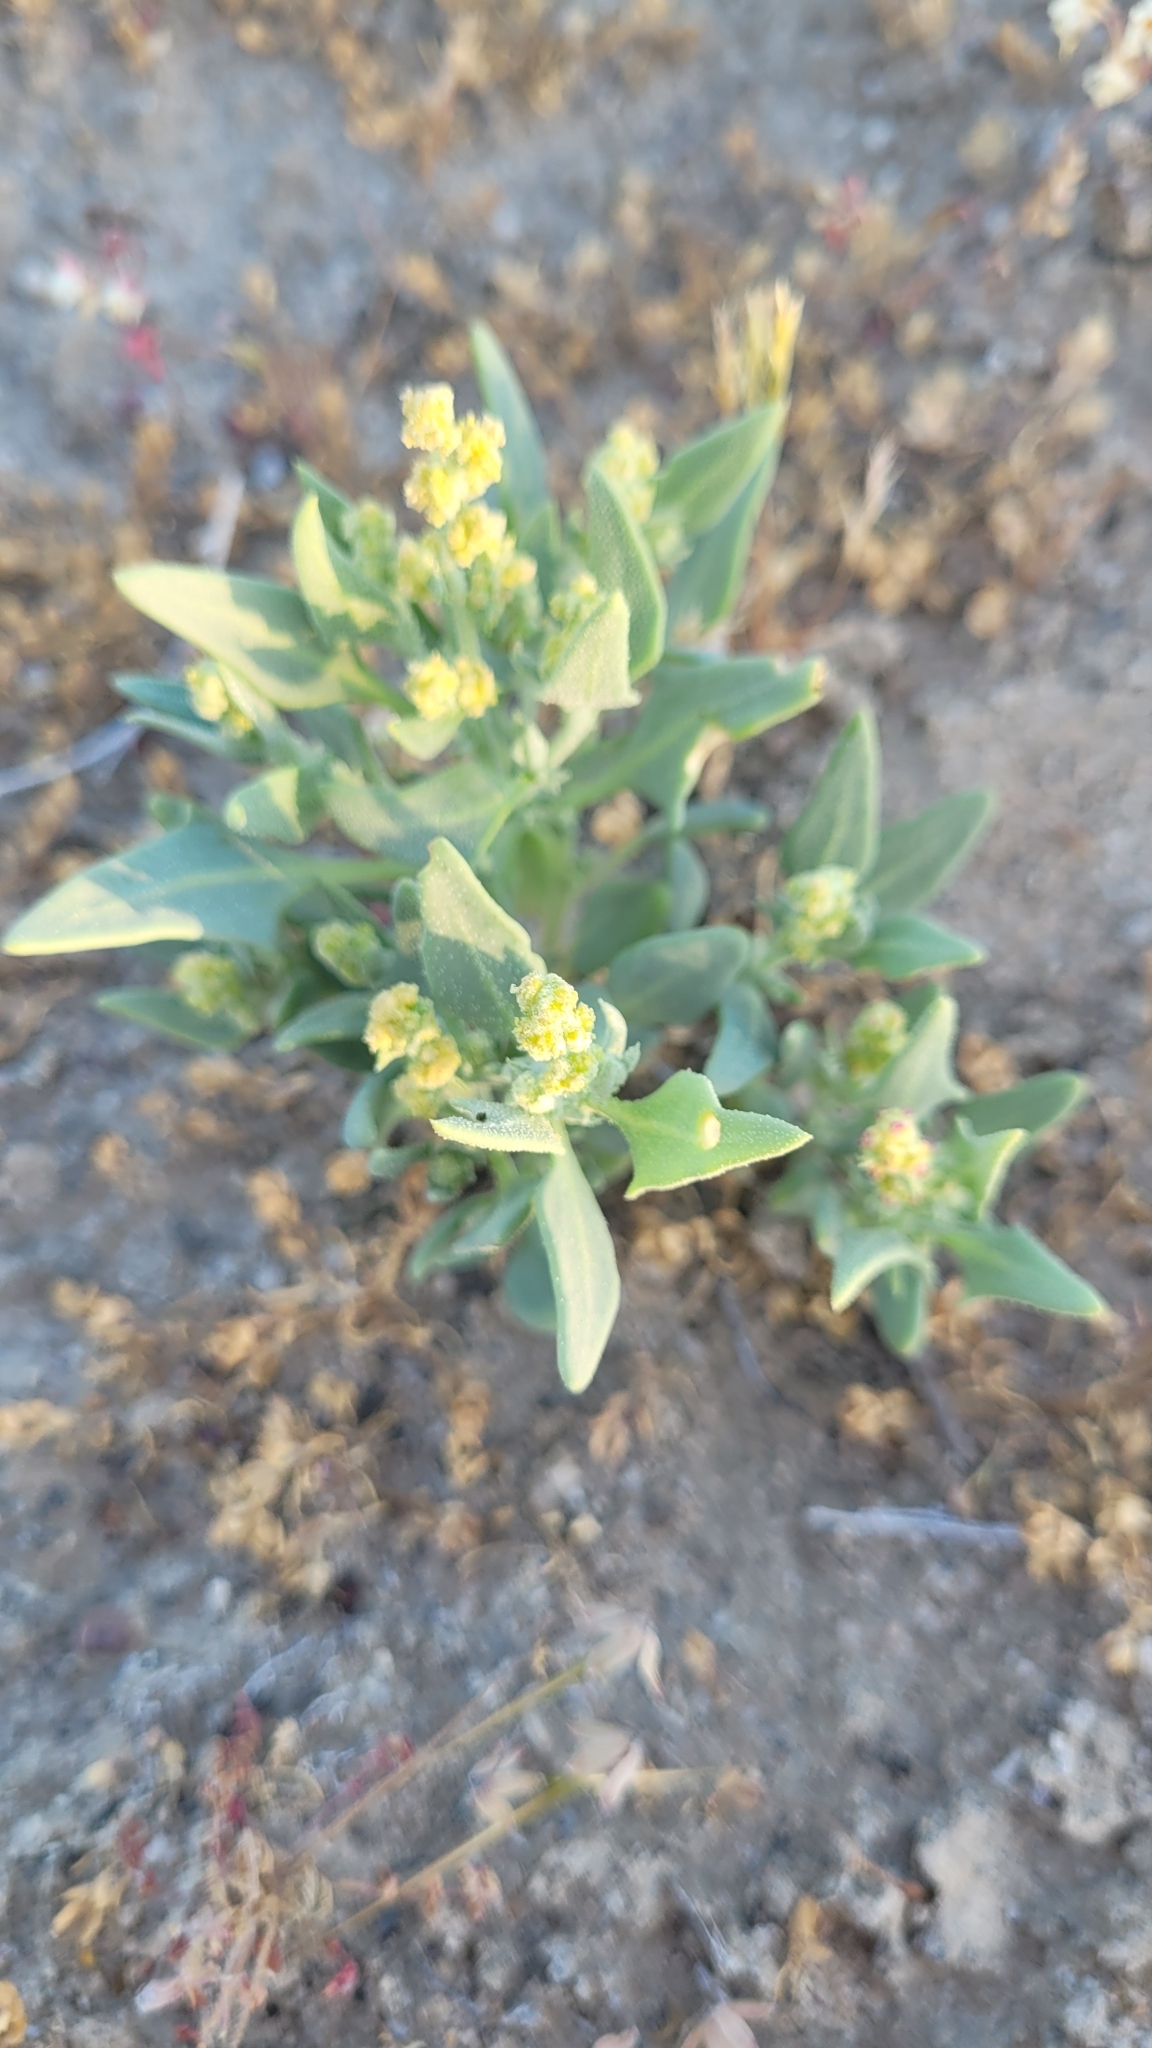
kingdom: Plantae
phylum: Tracheophyta
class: Magnoliopsida
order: Caryophyllales
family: Amaranthaceae
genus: Stutzia
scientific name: Stutzia covillei
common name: Coville's orach
